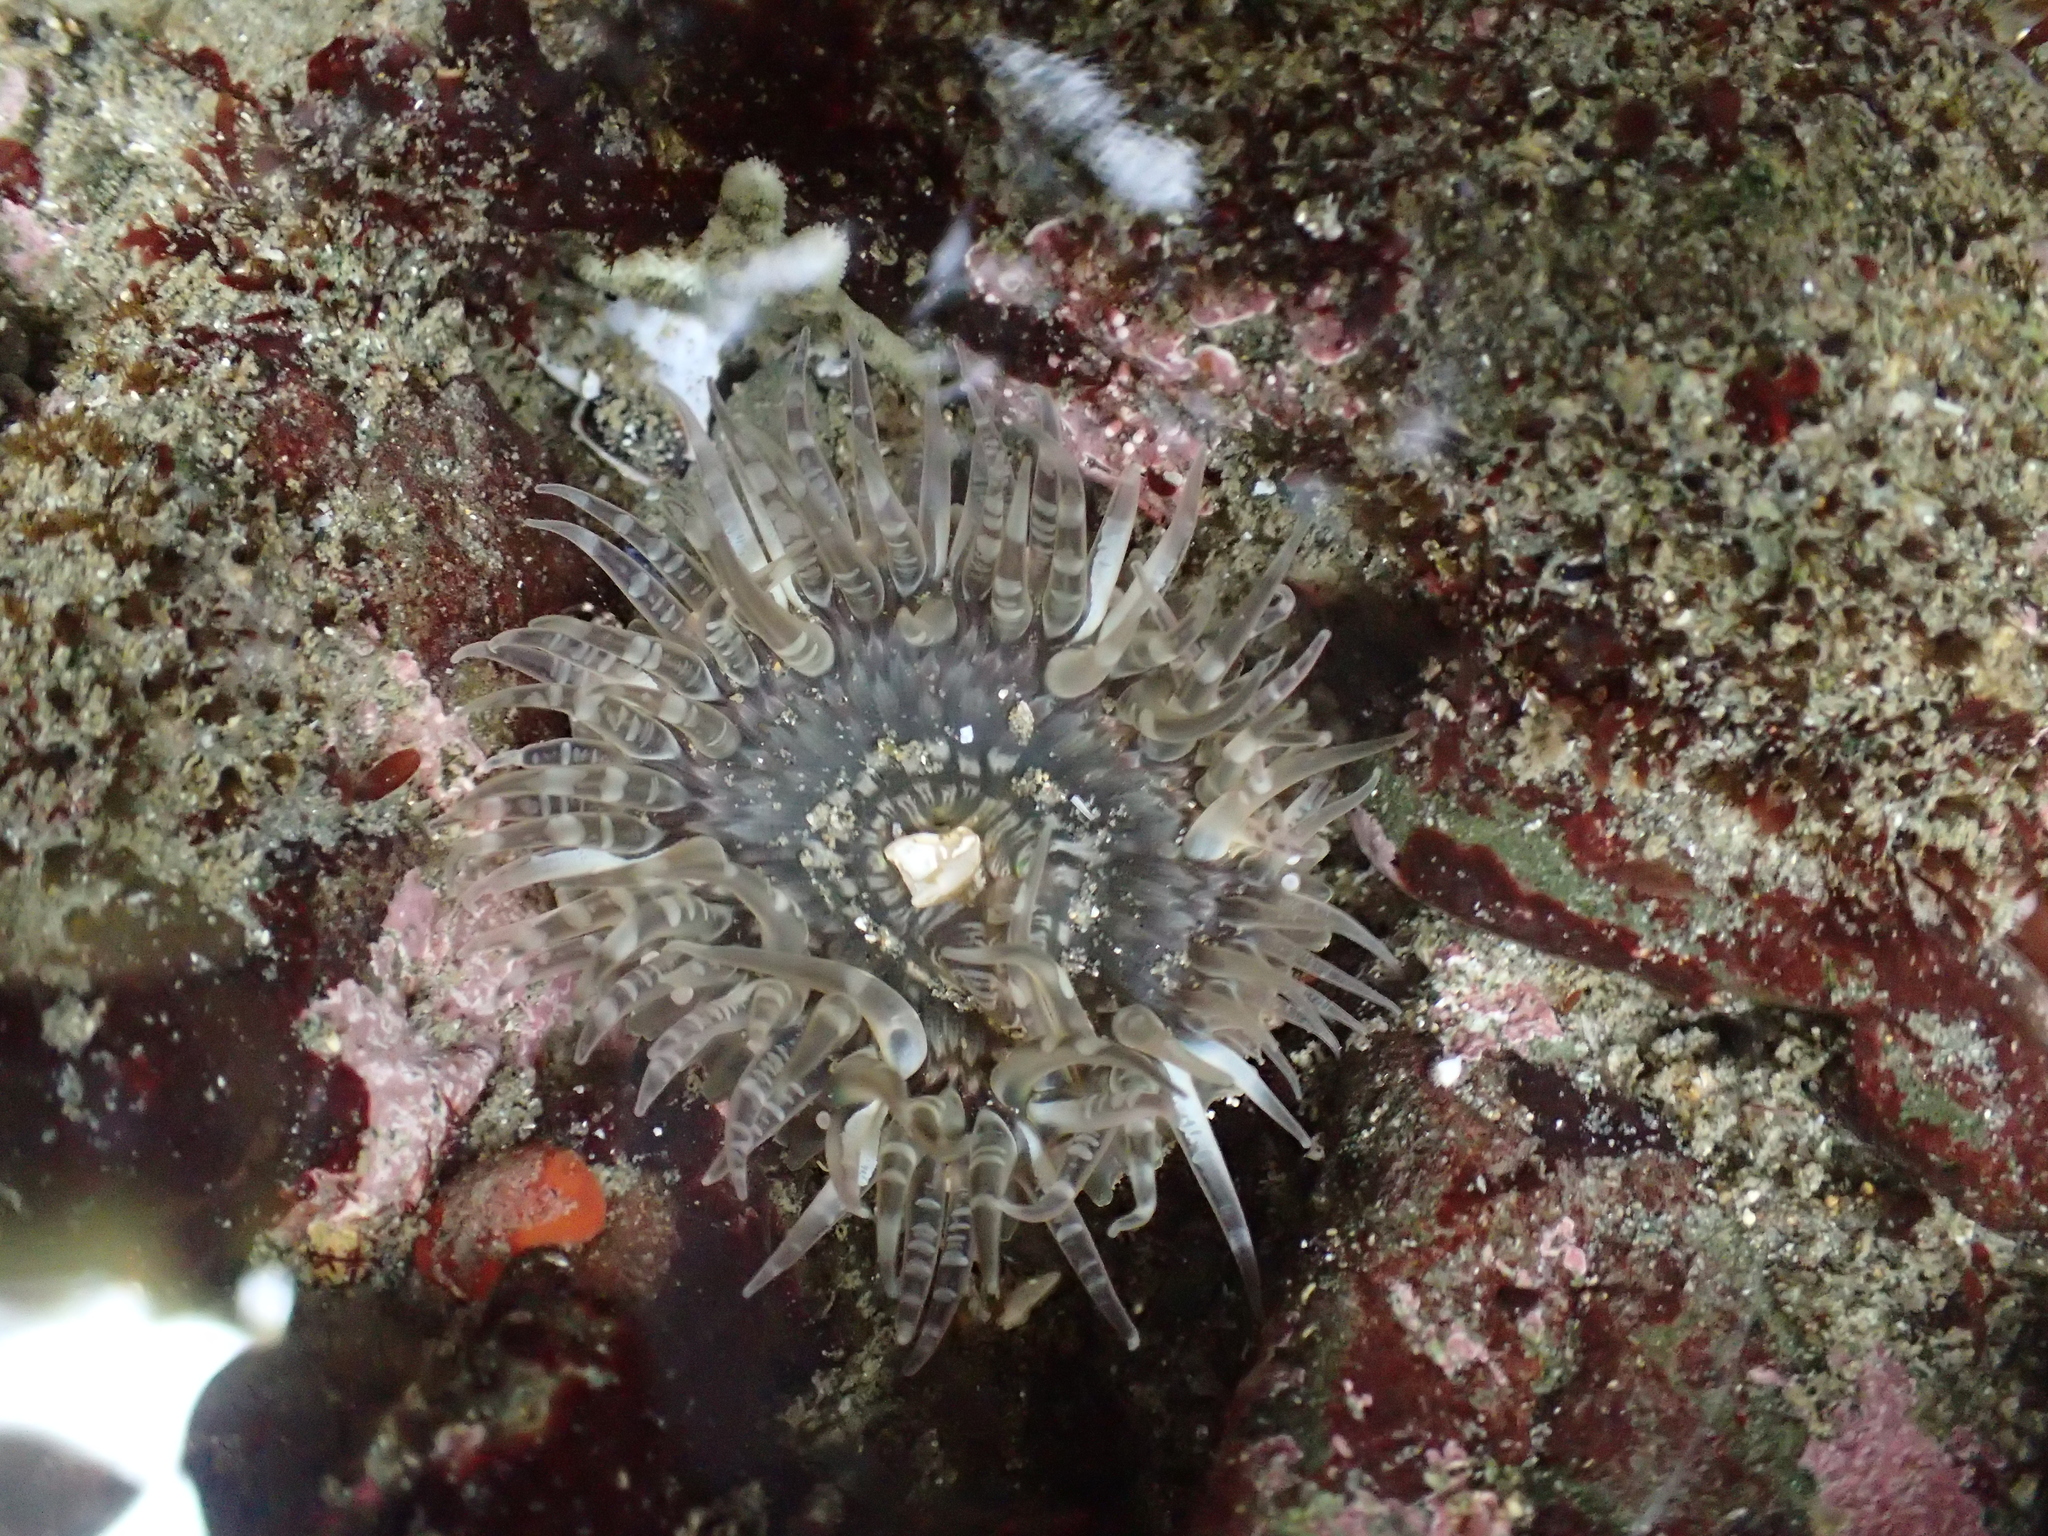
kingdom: Animalia
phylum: Cnidaria
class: Anthozoa
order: Actiniaria
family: Actiniidae
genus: Anthopleura
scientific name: Anthopleura artemisia
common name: Buried sea anemone
